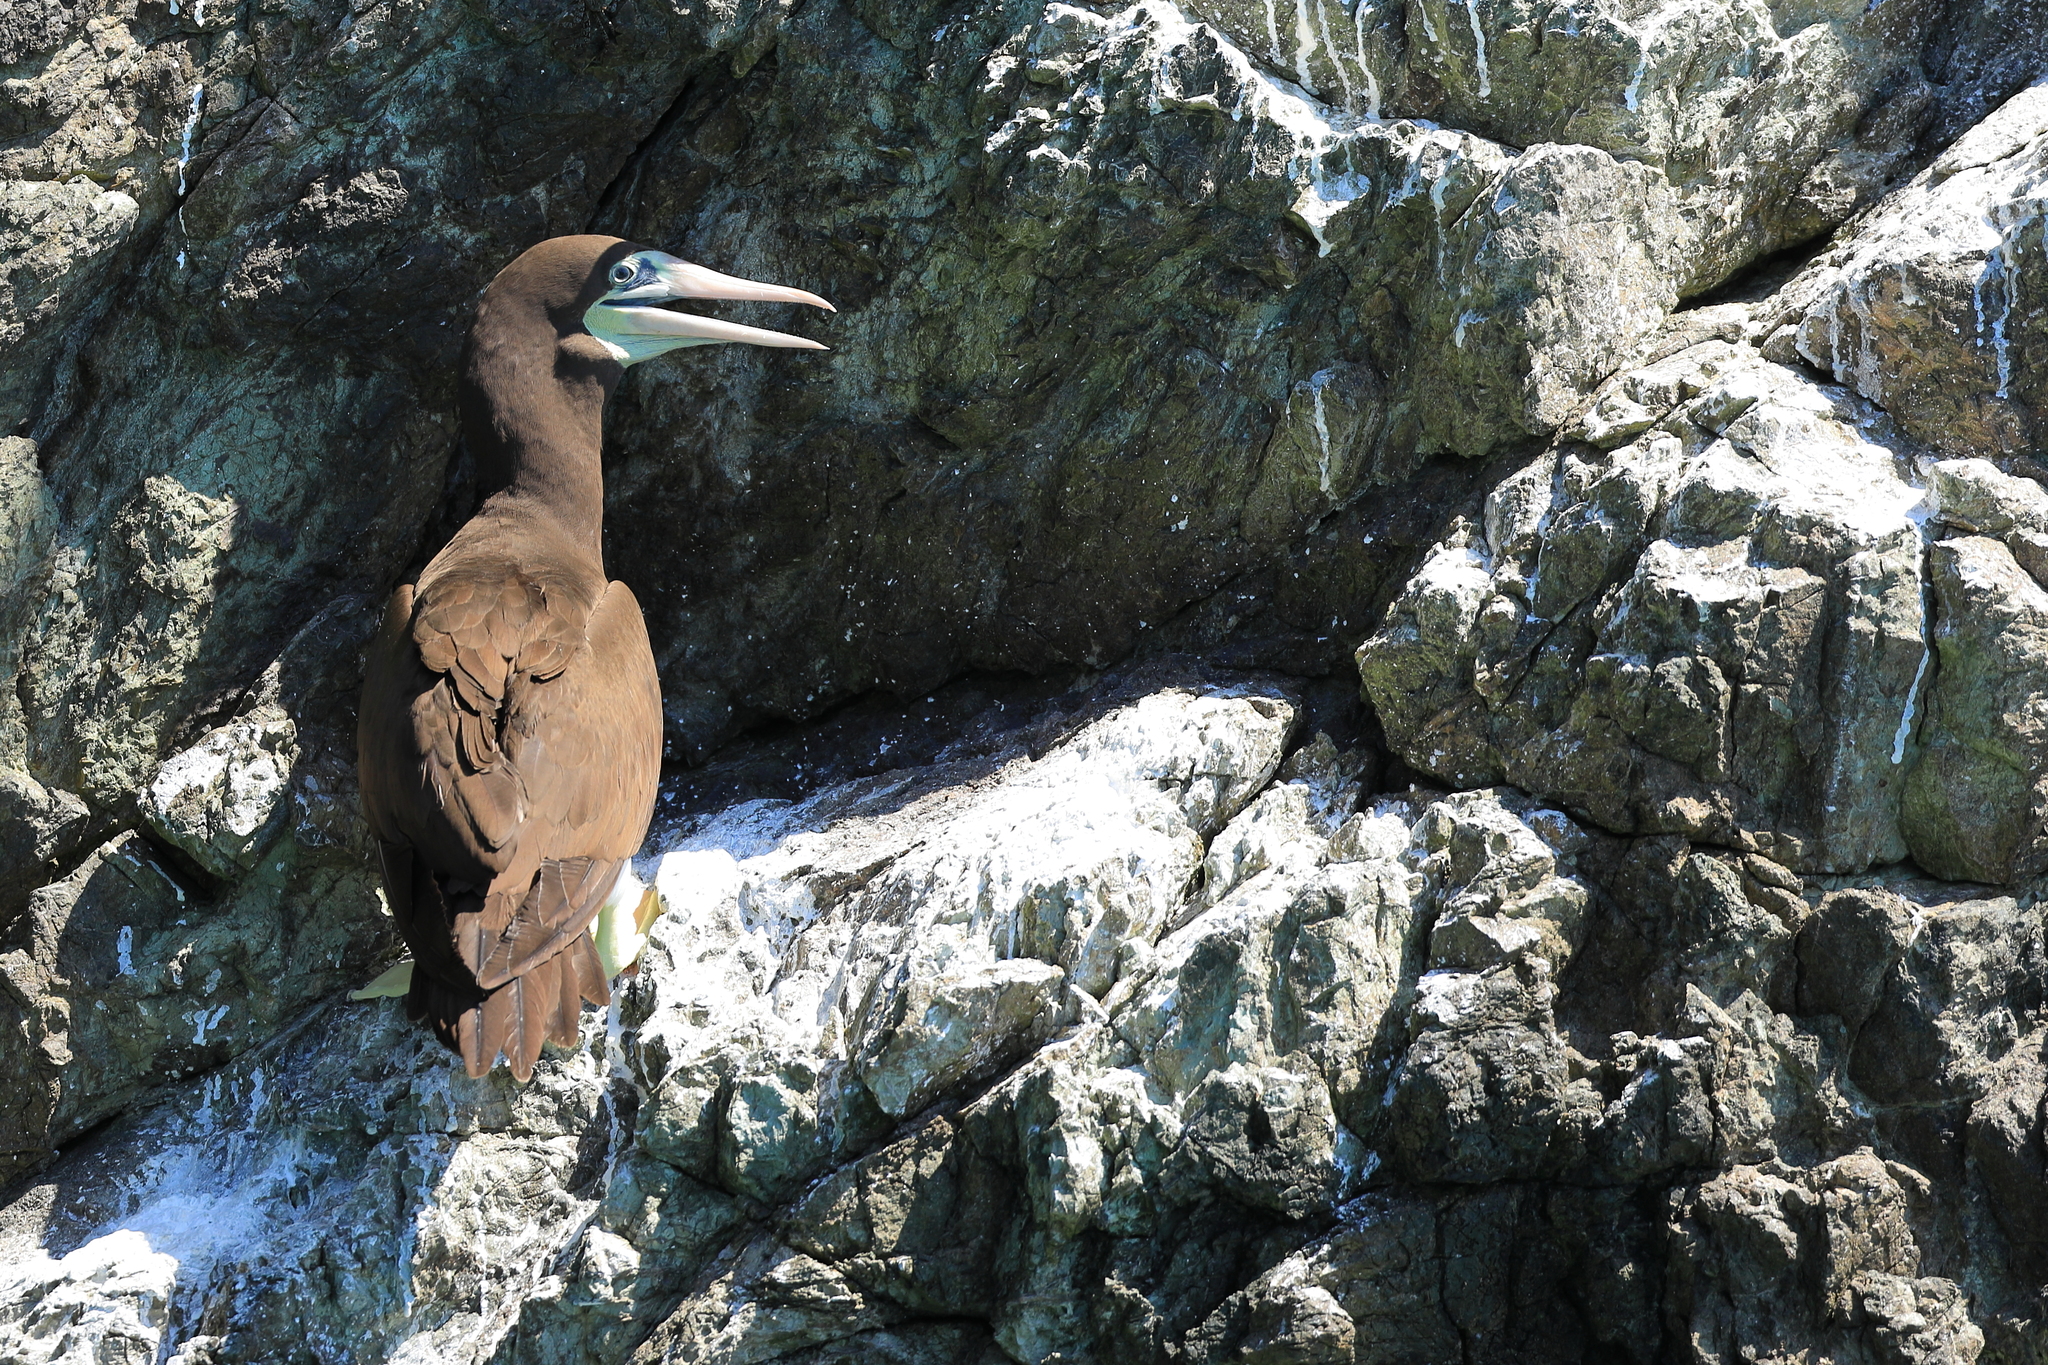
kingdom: Animalia
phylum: Chordata
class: Aves
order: Suliformes
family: Sulidae
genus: Sula
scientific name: Sula leucogaster
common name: Brown booby
